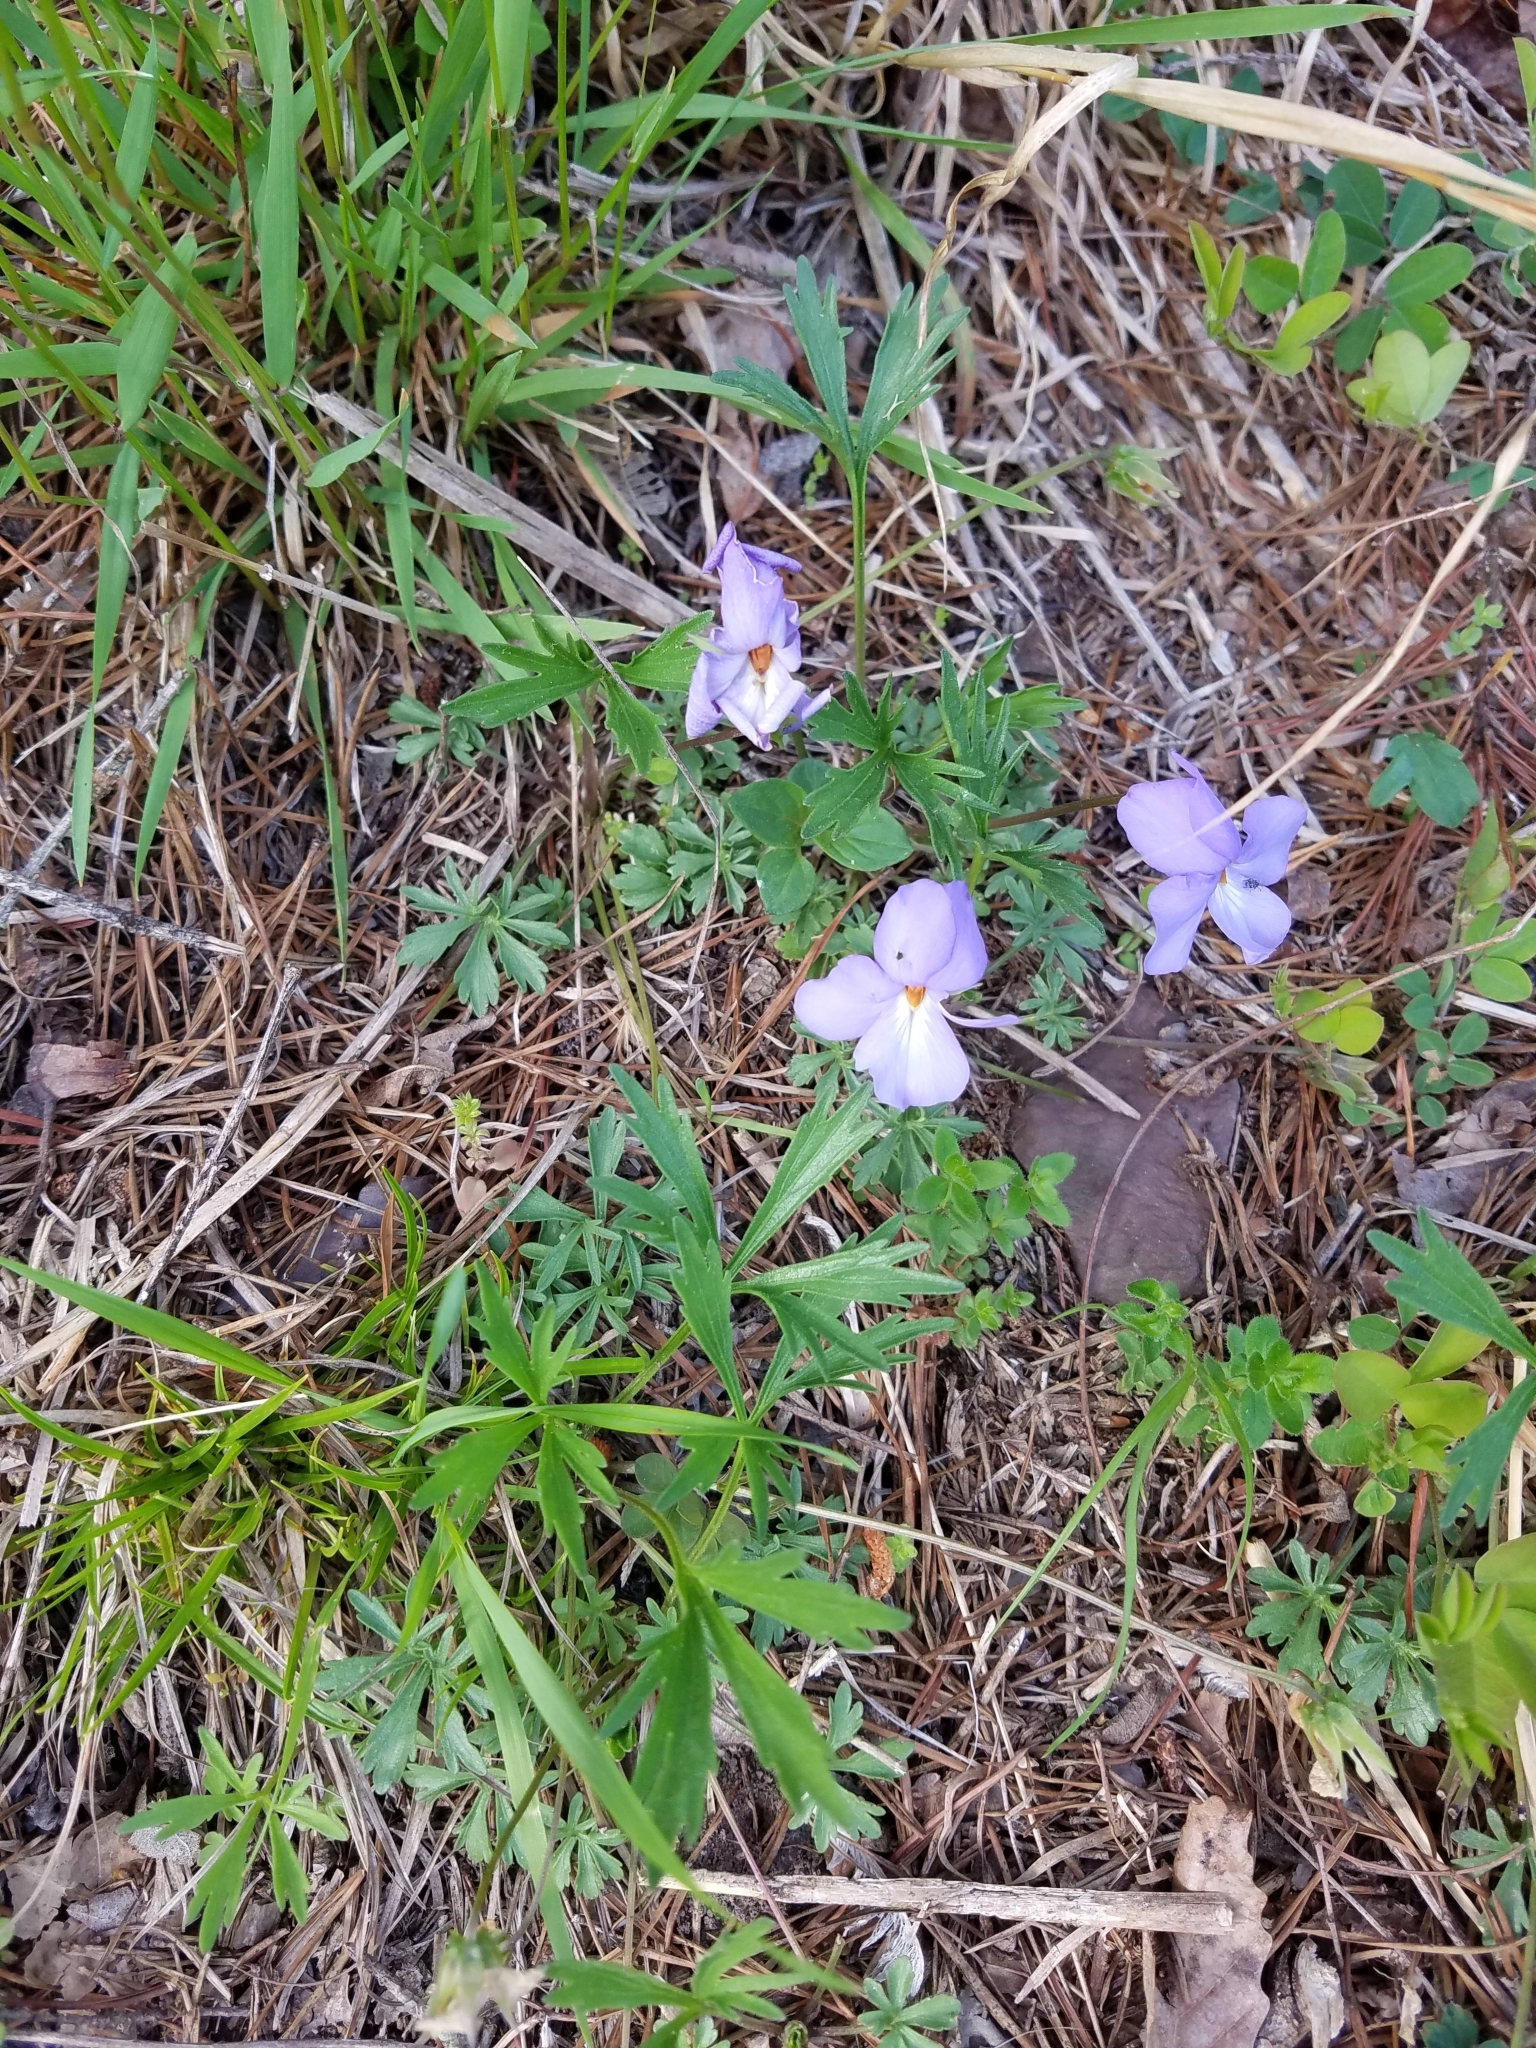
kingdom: Plantae
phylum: Tracheophyta
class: Magnoliopsida
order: Malpighiales
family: Violaceae
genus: Viola
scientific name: Viola pedata
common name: Pansy violet
